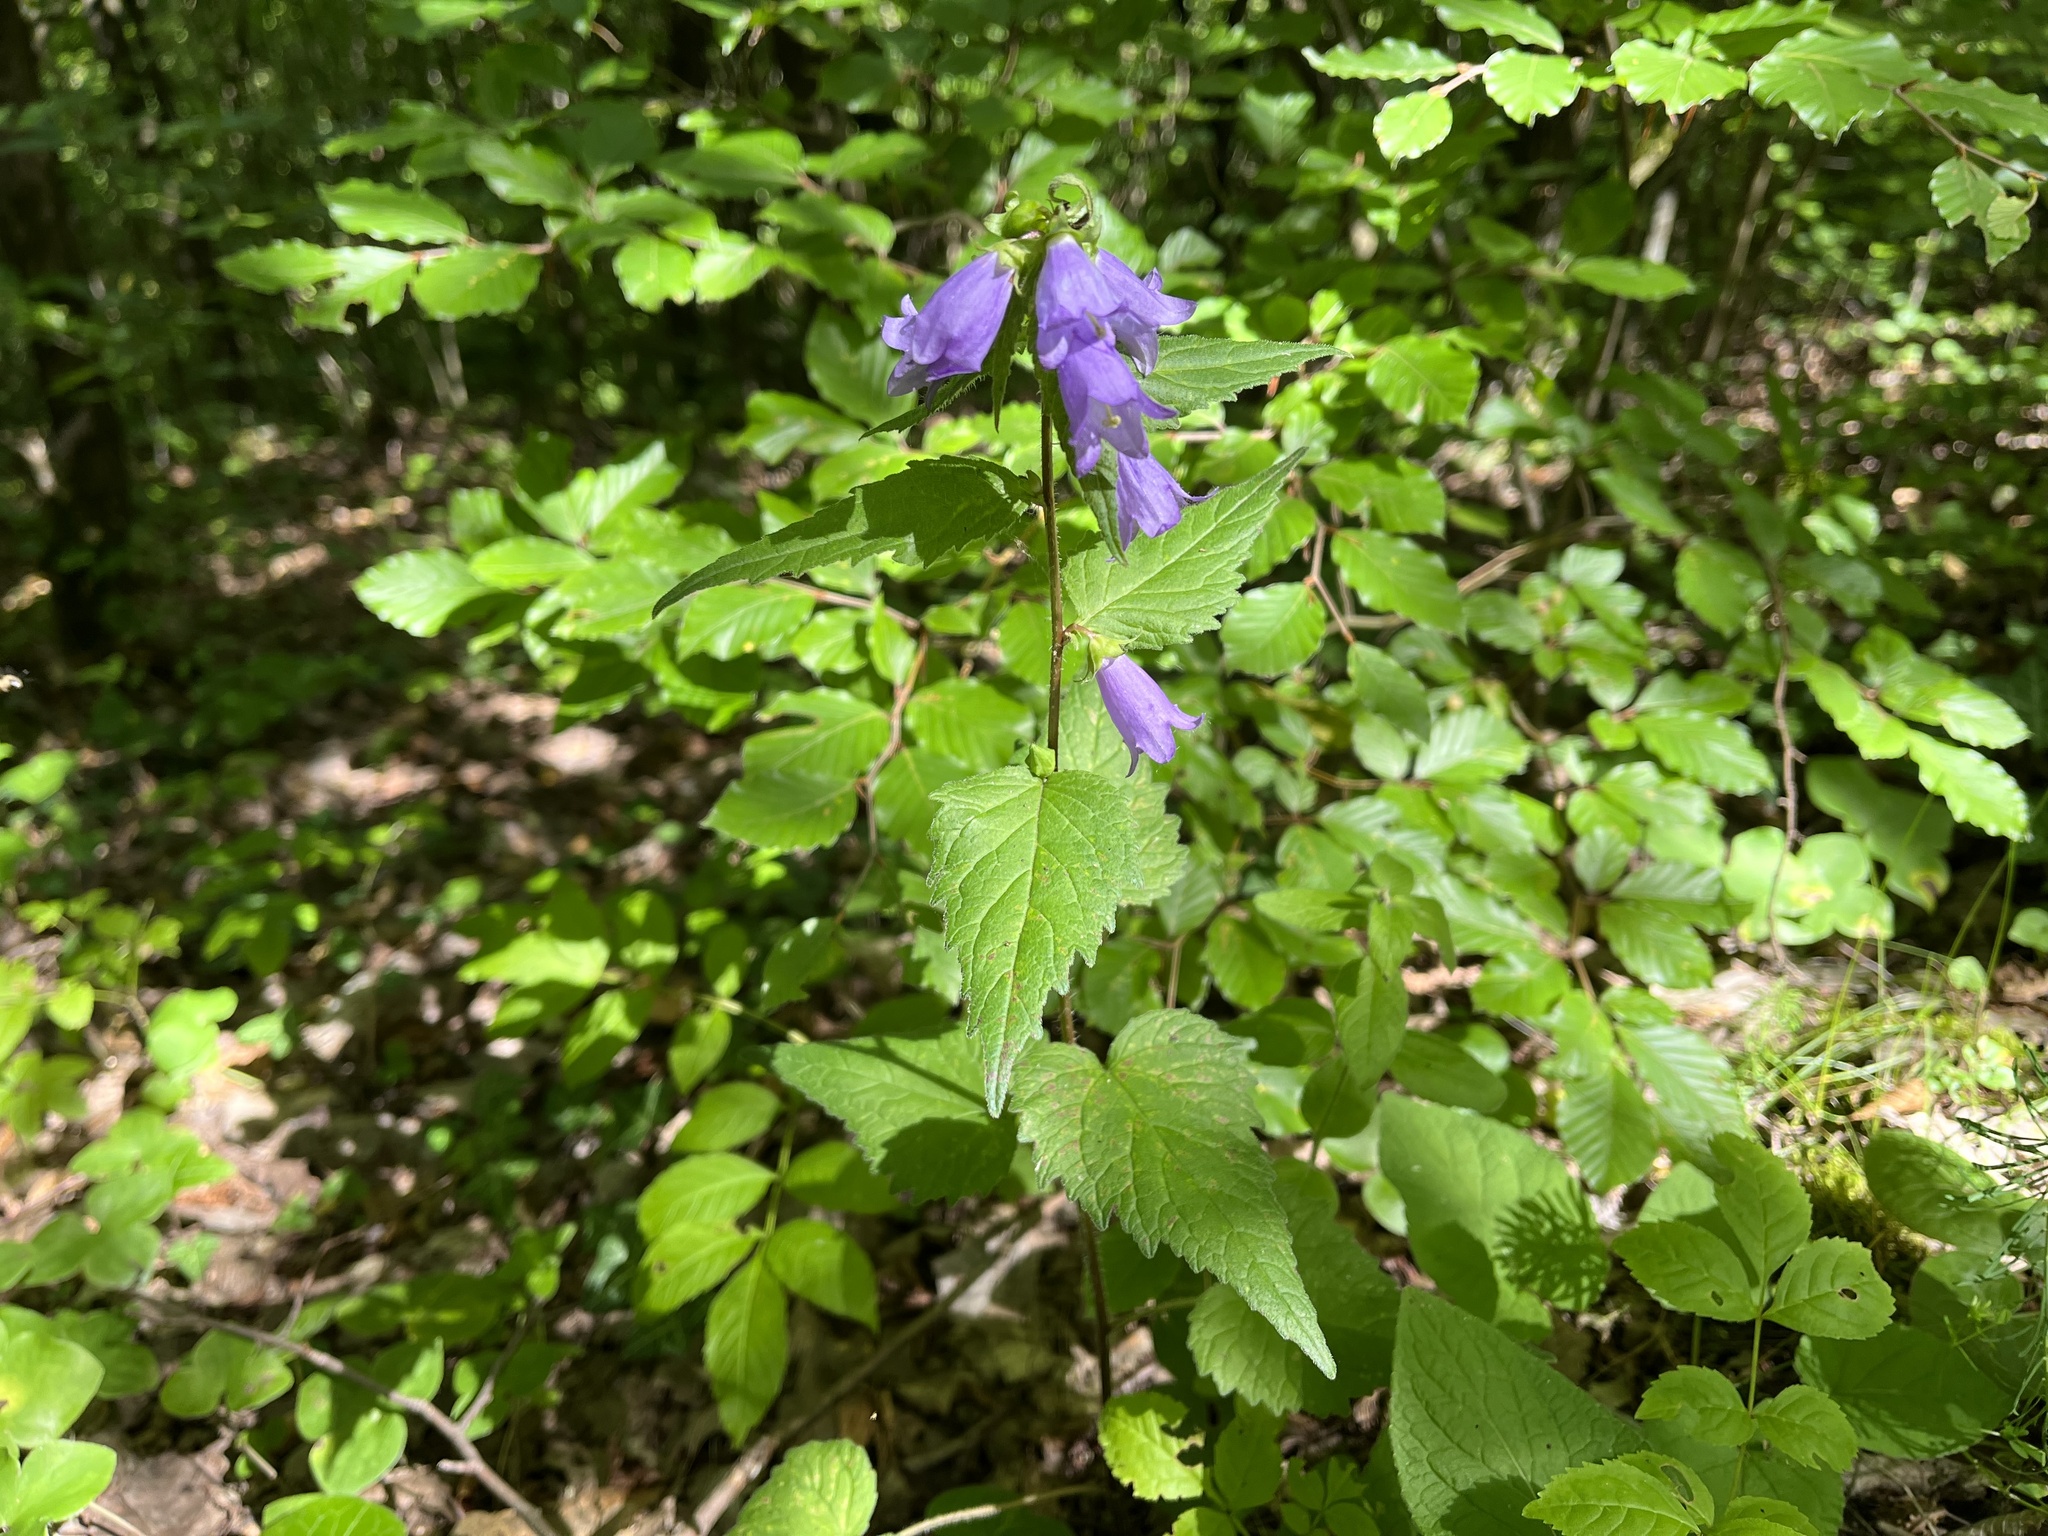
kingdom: Plantae
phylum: Tracheophyta
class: Magnoliopsida
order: Asterales
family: Campanulaceae
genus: Campanula
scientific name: Campanula trachelium
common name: Nettle-leaved bellflower
